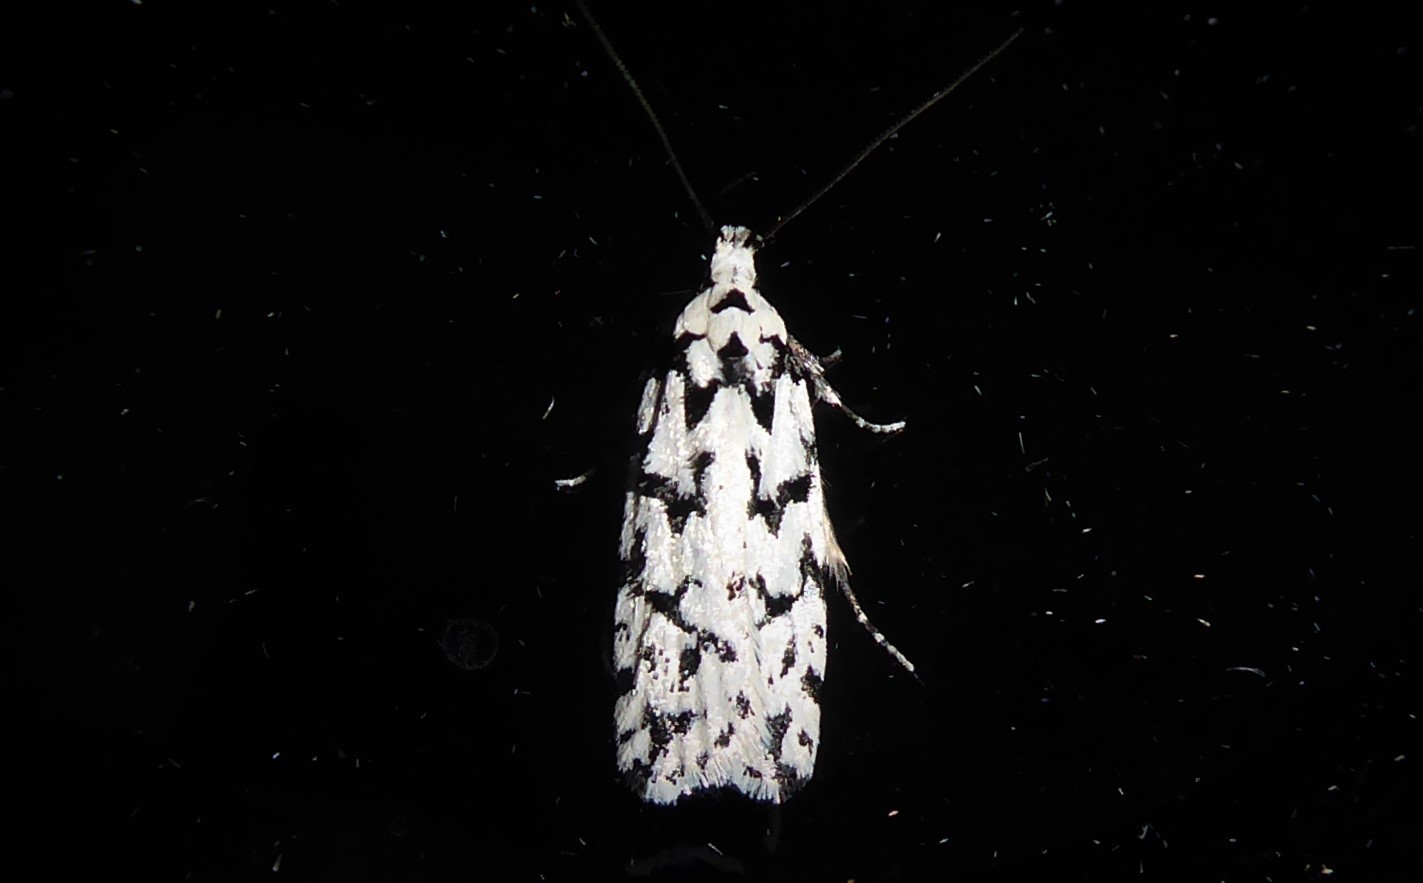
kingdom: Animalia
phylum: Arthropoda
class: Insecta
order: Lepidoptera
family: Oecophoridae
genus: Izatha
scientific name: Izatha katadiktya
